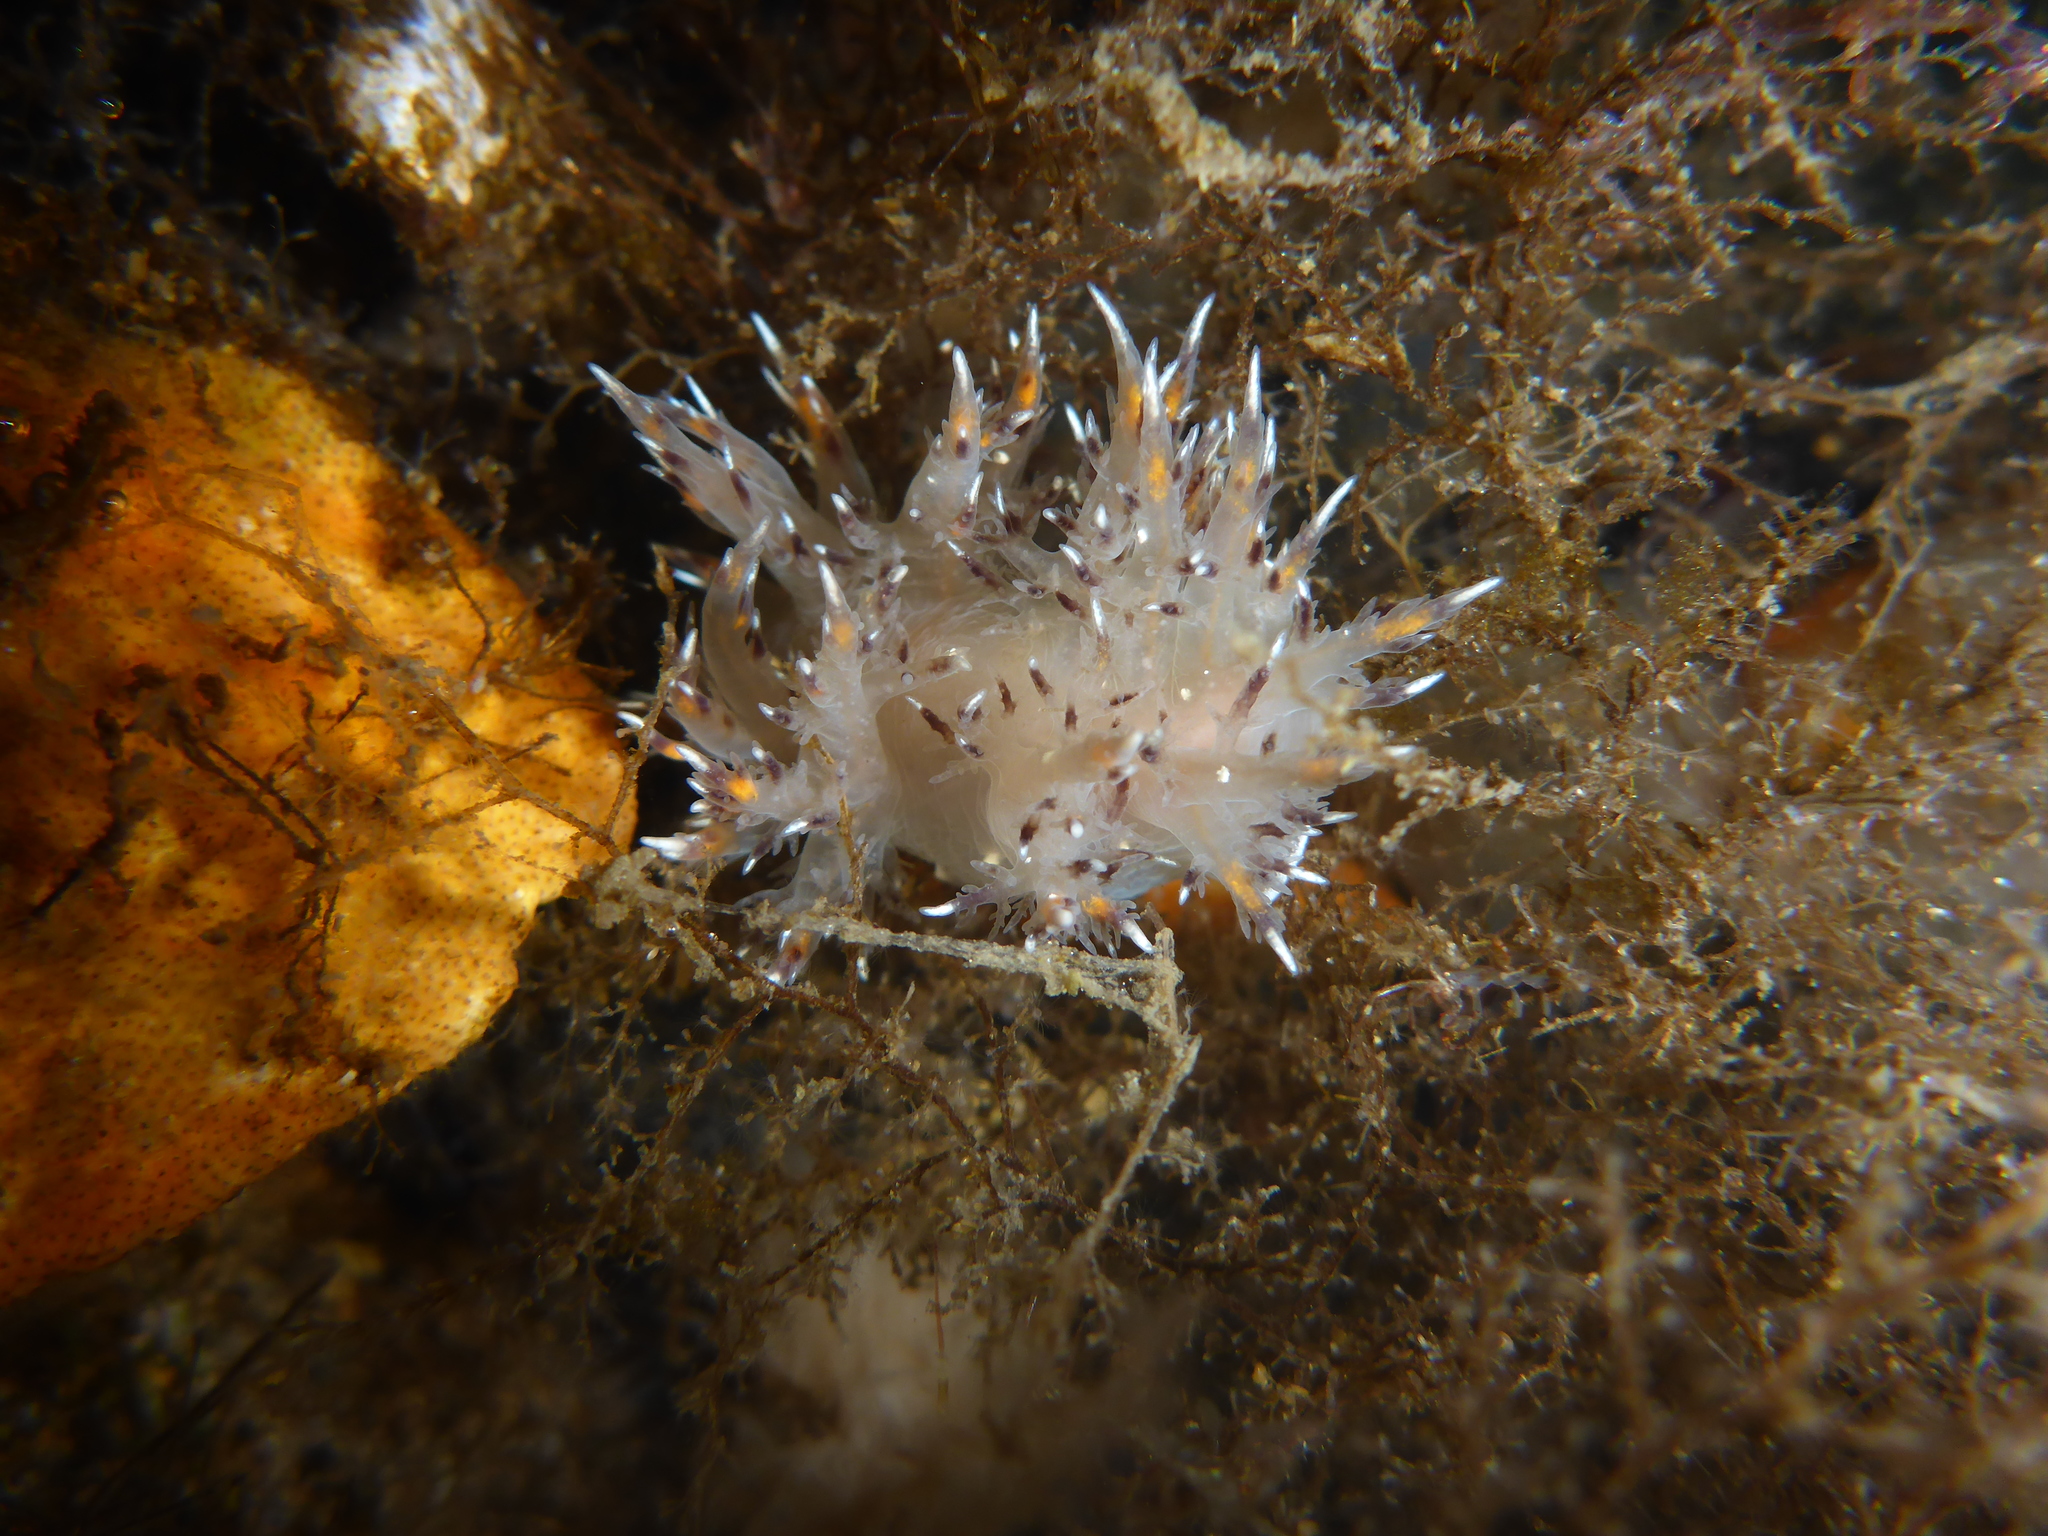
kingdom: Animalia
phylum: Mollusca
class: Gastropoda
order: Nudibranchia
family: Dendronotidae
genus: Dendronotus
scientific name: Dendronotus iris
